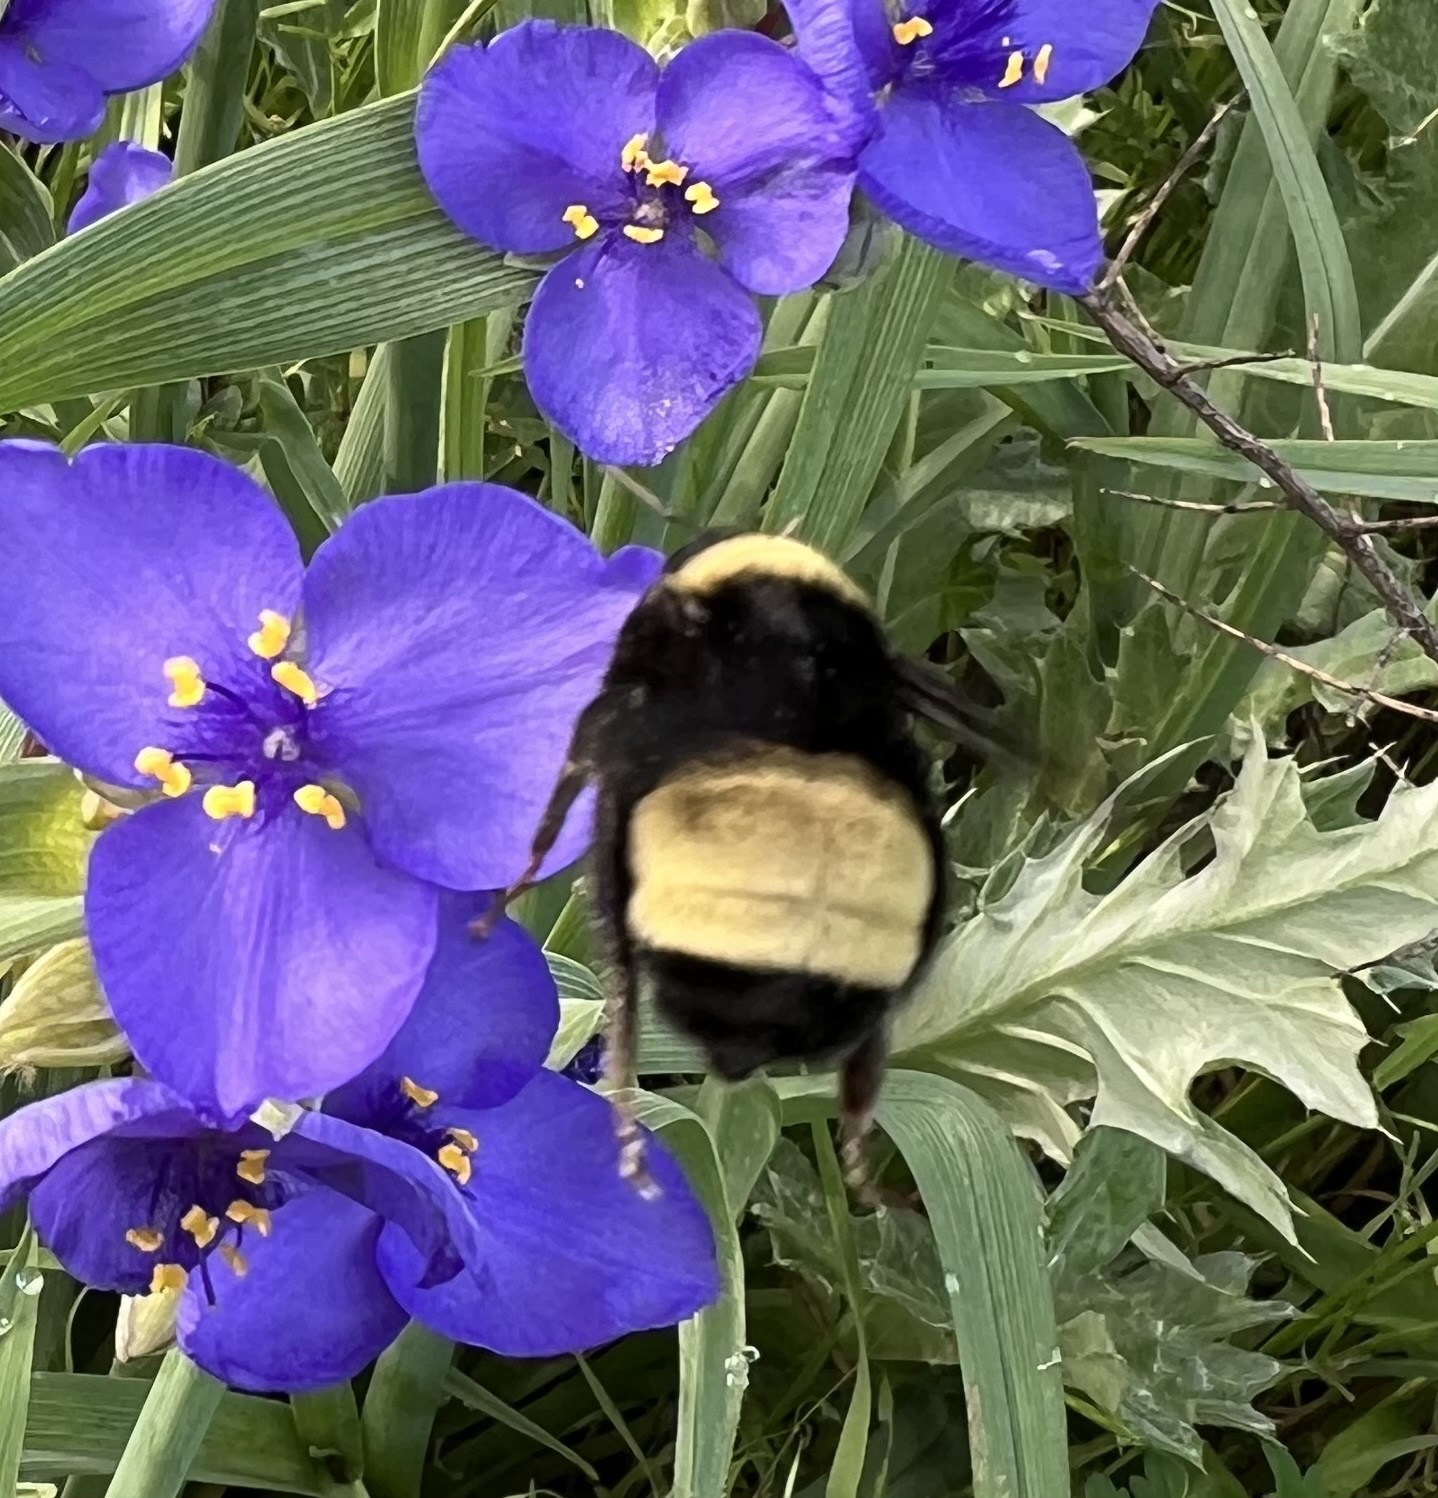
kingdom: Animalia
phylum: Arthropoda
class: Insecta
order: Hymenoptera
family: Apidae
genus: Bombus
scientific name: Bombus pensylvanicus
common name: Bumble bee
